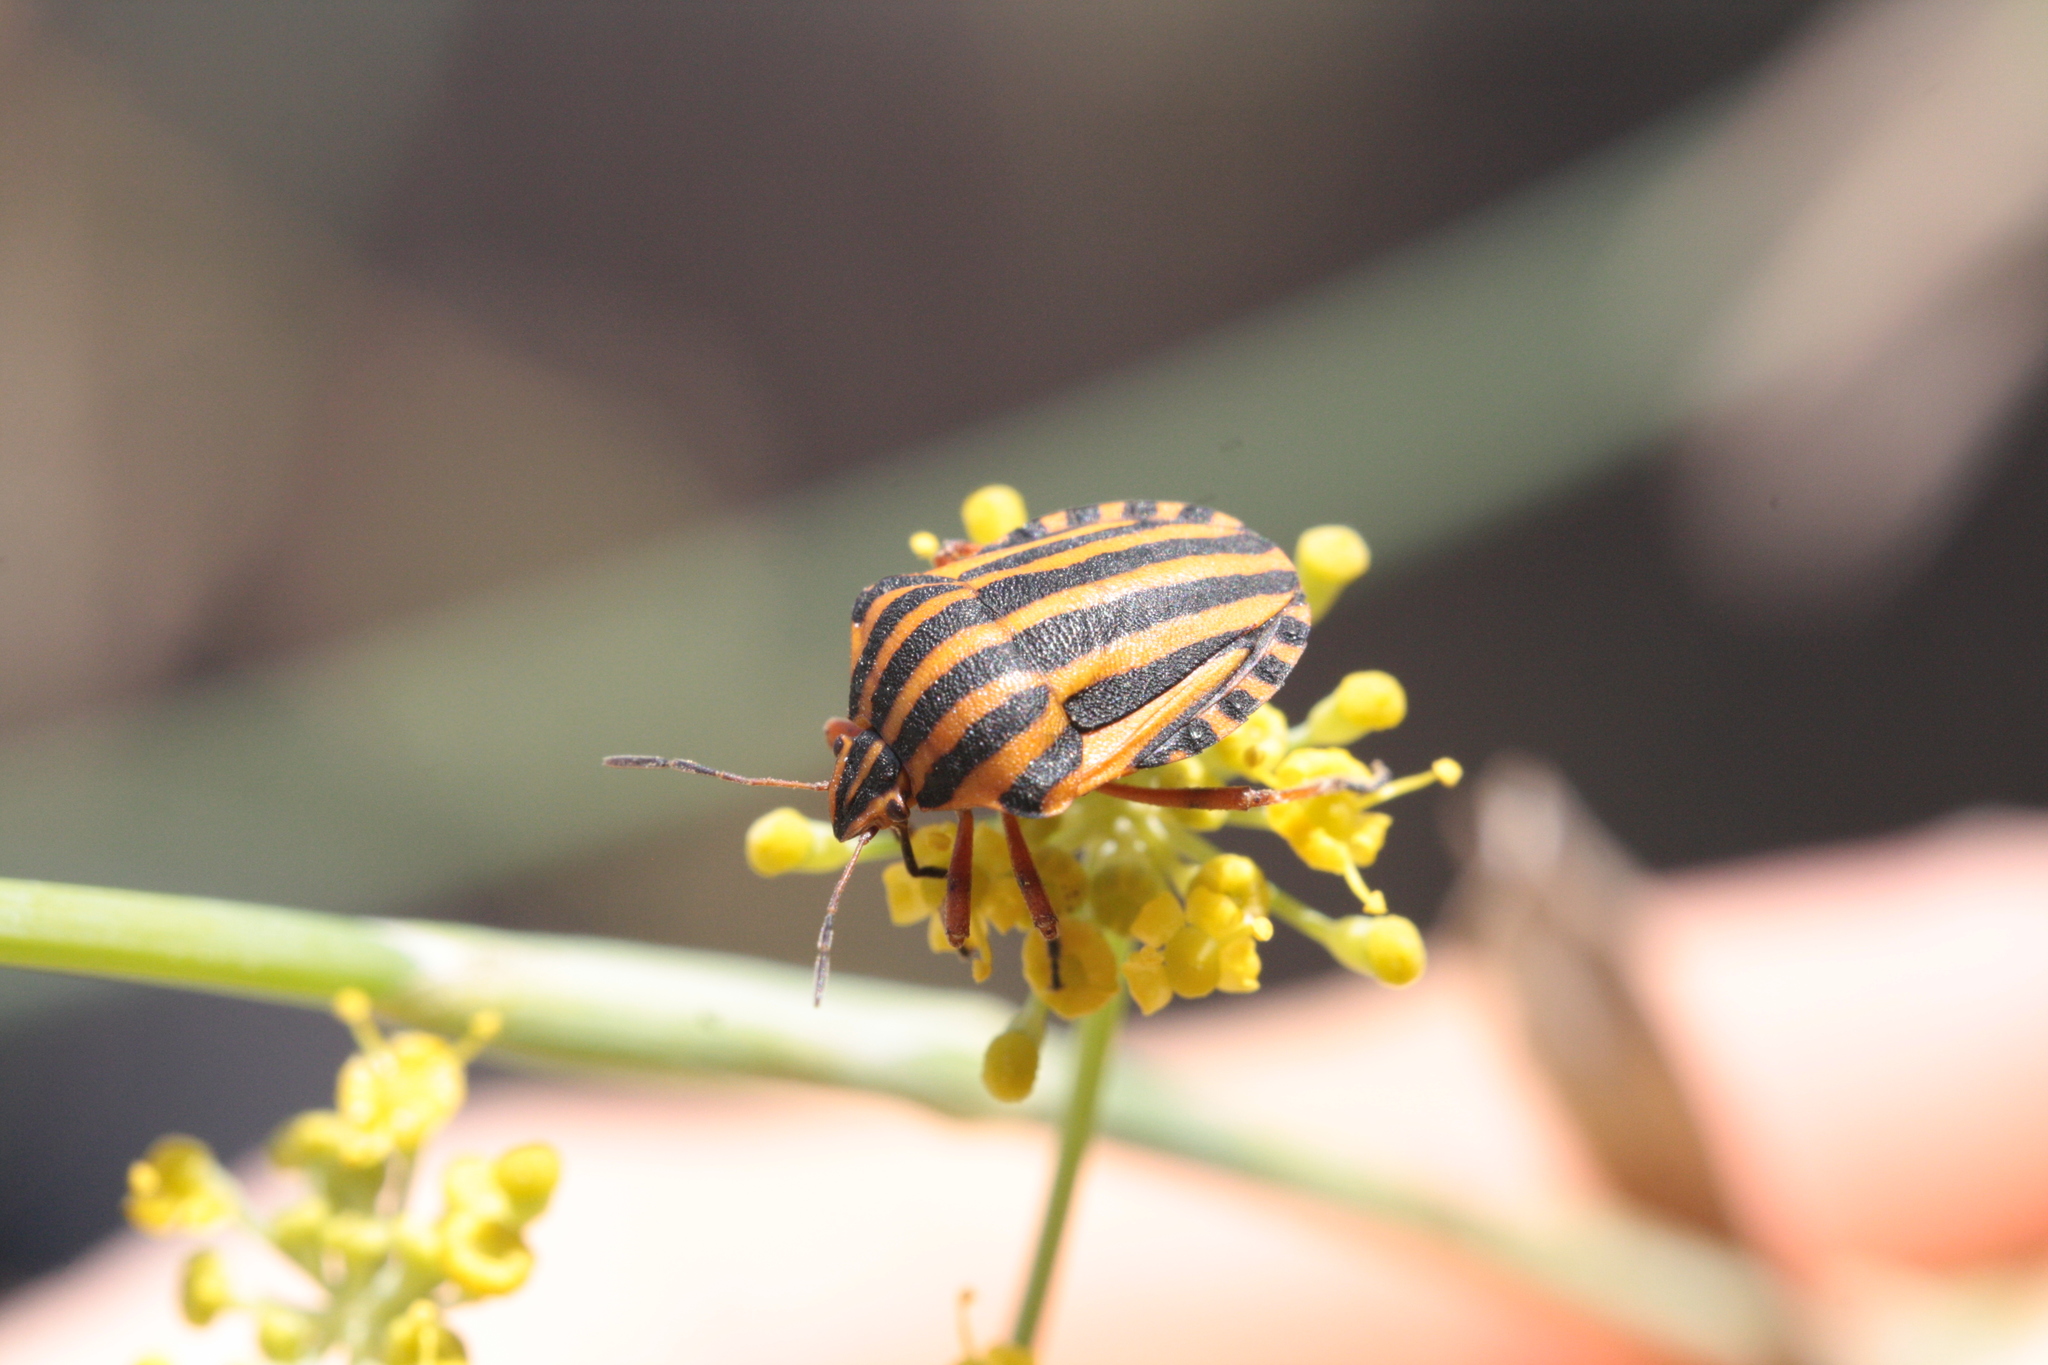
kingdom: Animalia
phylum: Arthropoda
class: Insecta
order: Hemiptera
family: Pentatomidae
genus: Graphosoma
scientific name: Graphosoma italicum
